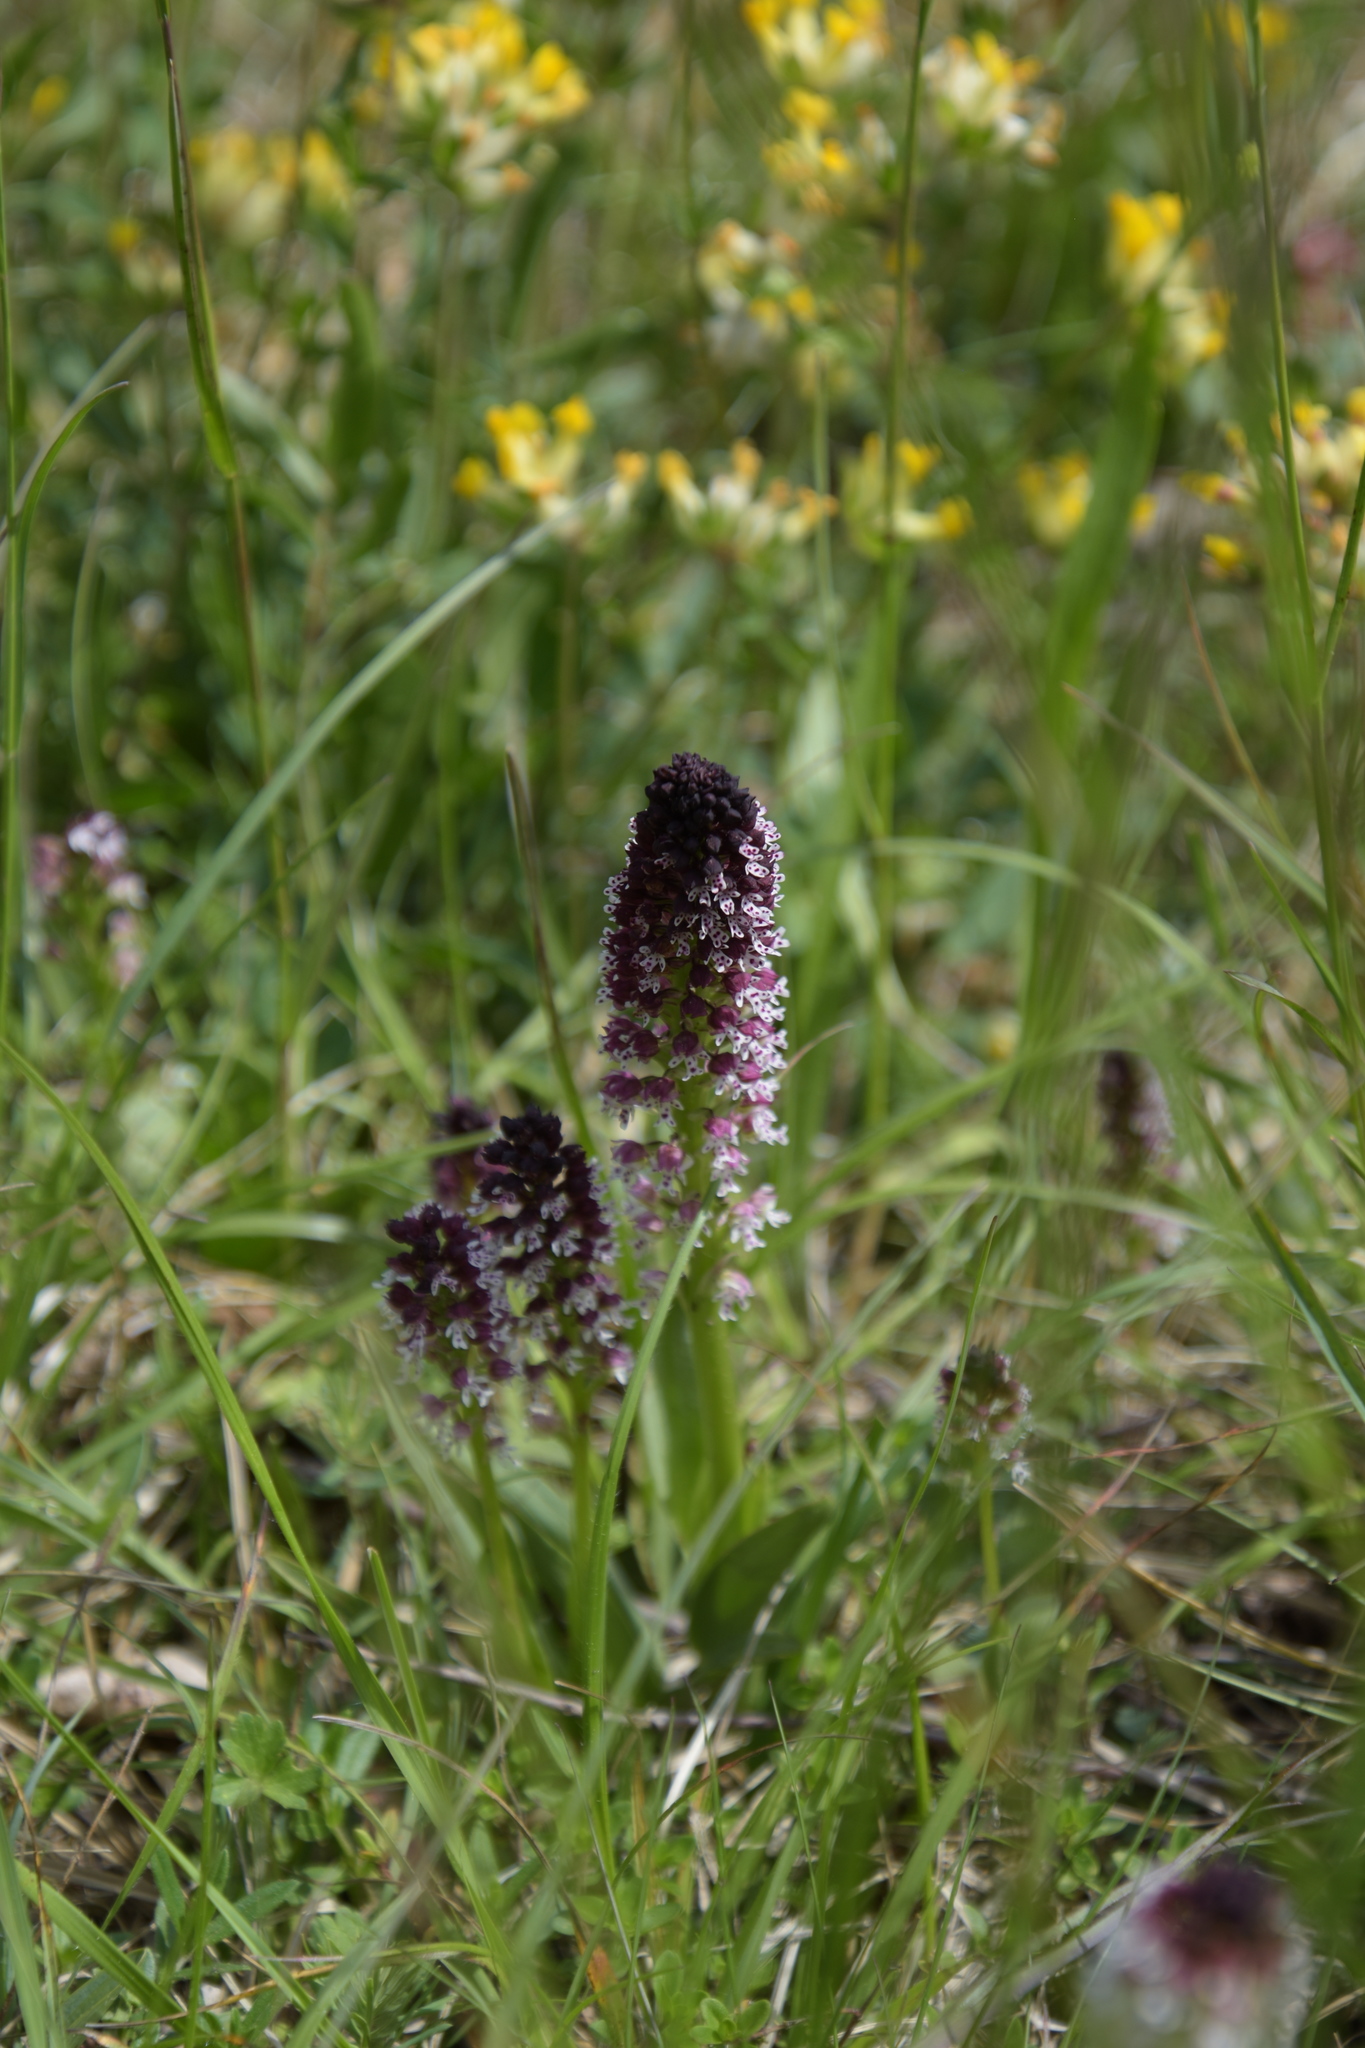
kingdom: Plantae
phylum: Tracheophyta
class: Liliopsida
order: Asparagales
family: Orchidaceae
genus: Neotinea
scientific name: Neotinea ustulata
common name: Burnt orchid
